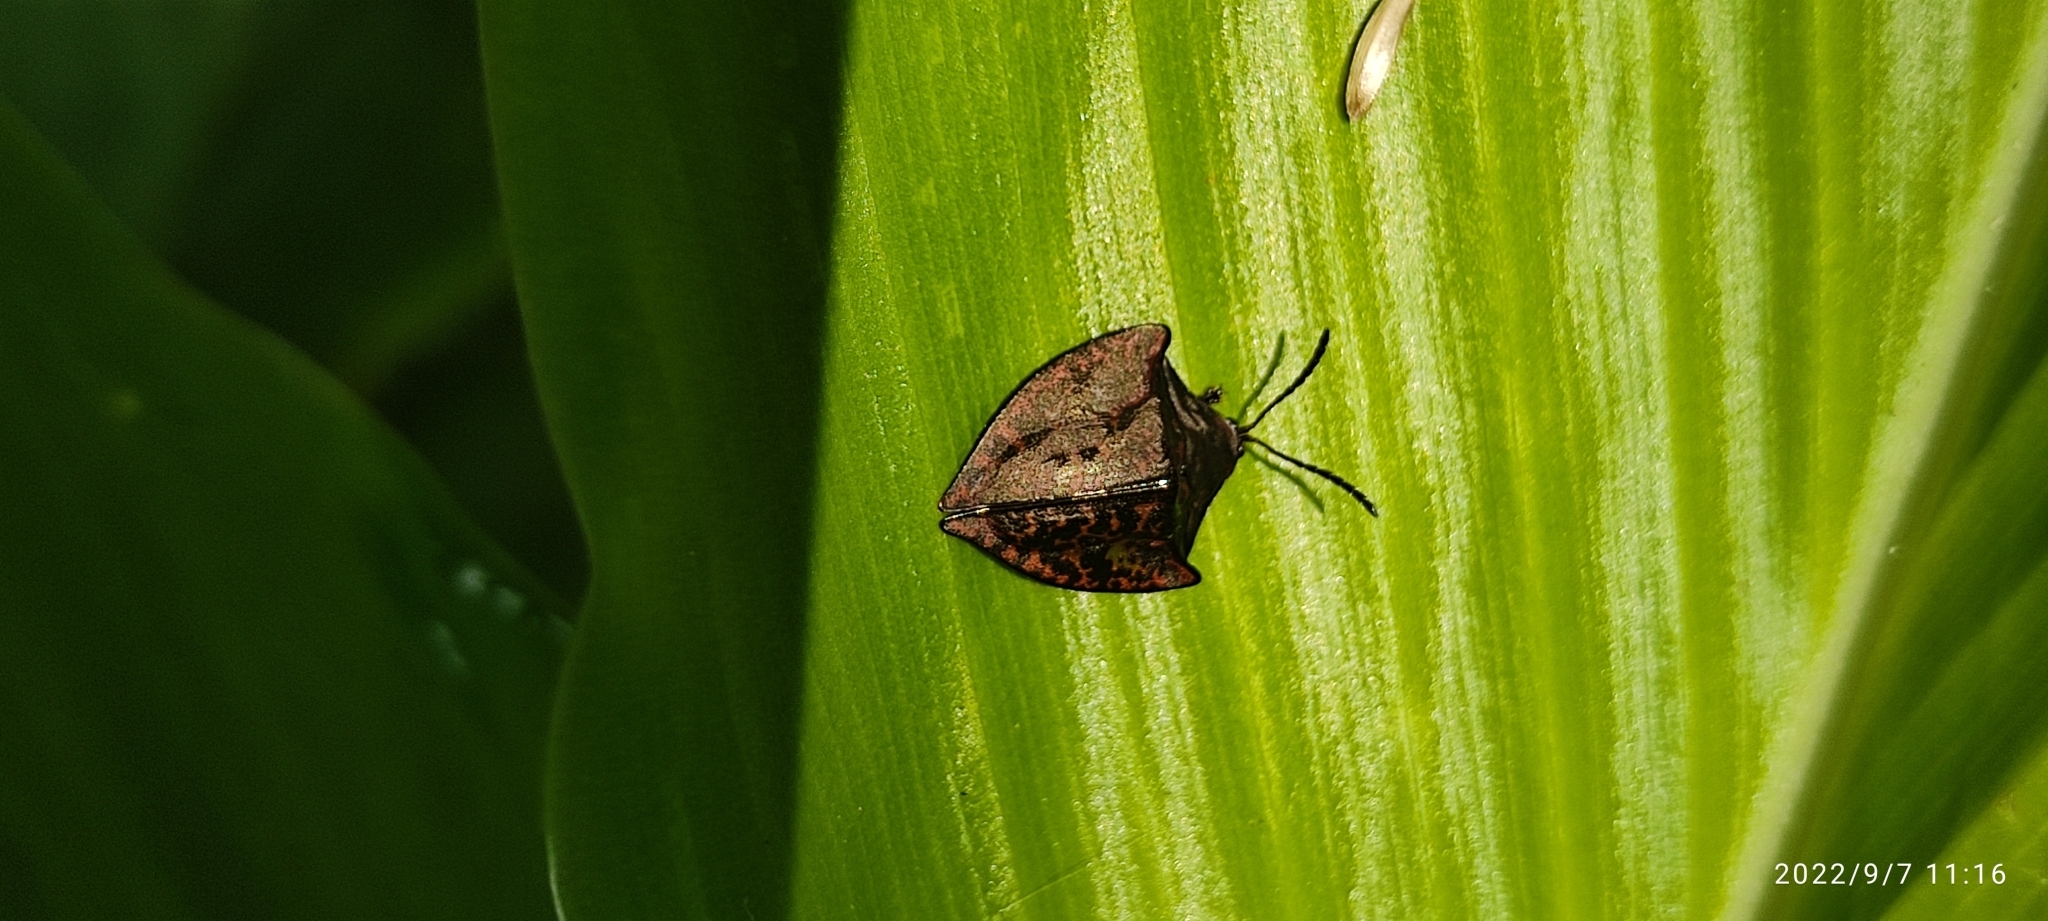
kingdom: Animalia
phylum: Arthropoda
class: Insecta
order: Coleoptera
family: Chrysomelidae
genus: Acromis
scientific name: Acromis venosa
